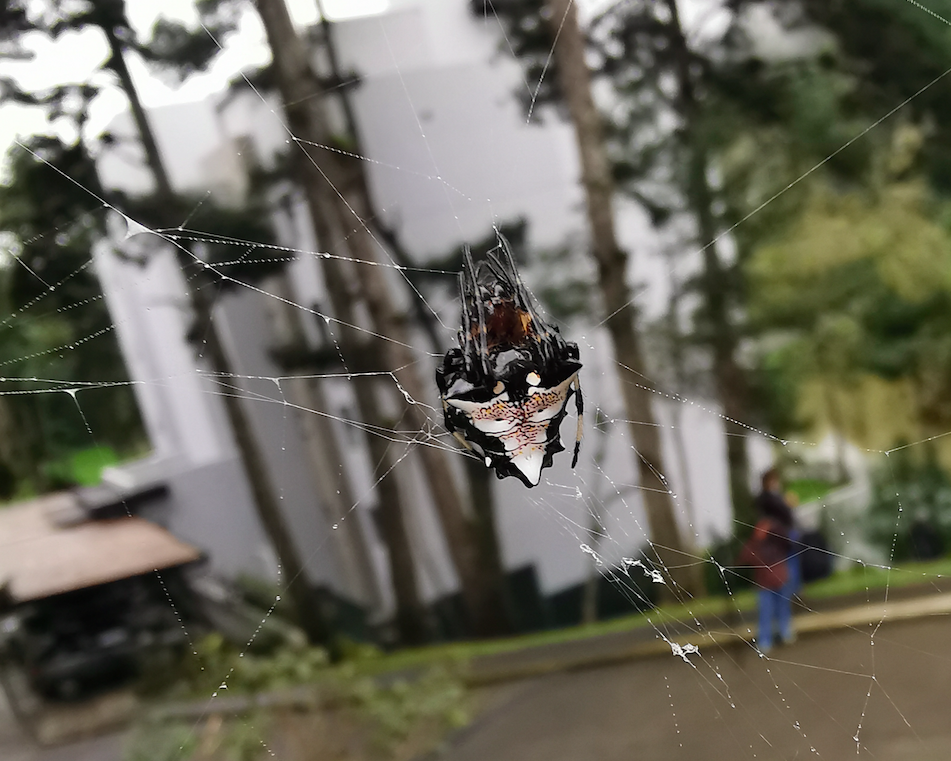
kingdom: Animalia
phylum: Arthropoda
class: Arachnida
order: Araneae
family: Araneidae
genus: Verrucosa
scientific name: Verrucosa arenata
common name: Orb weavers
